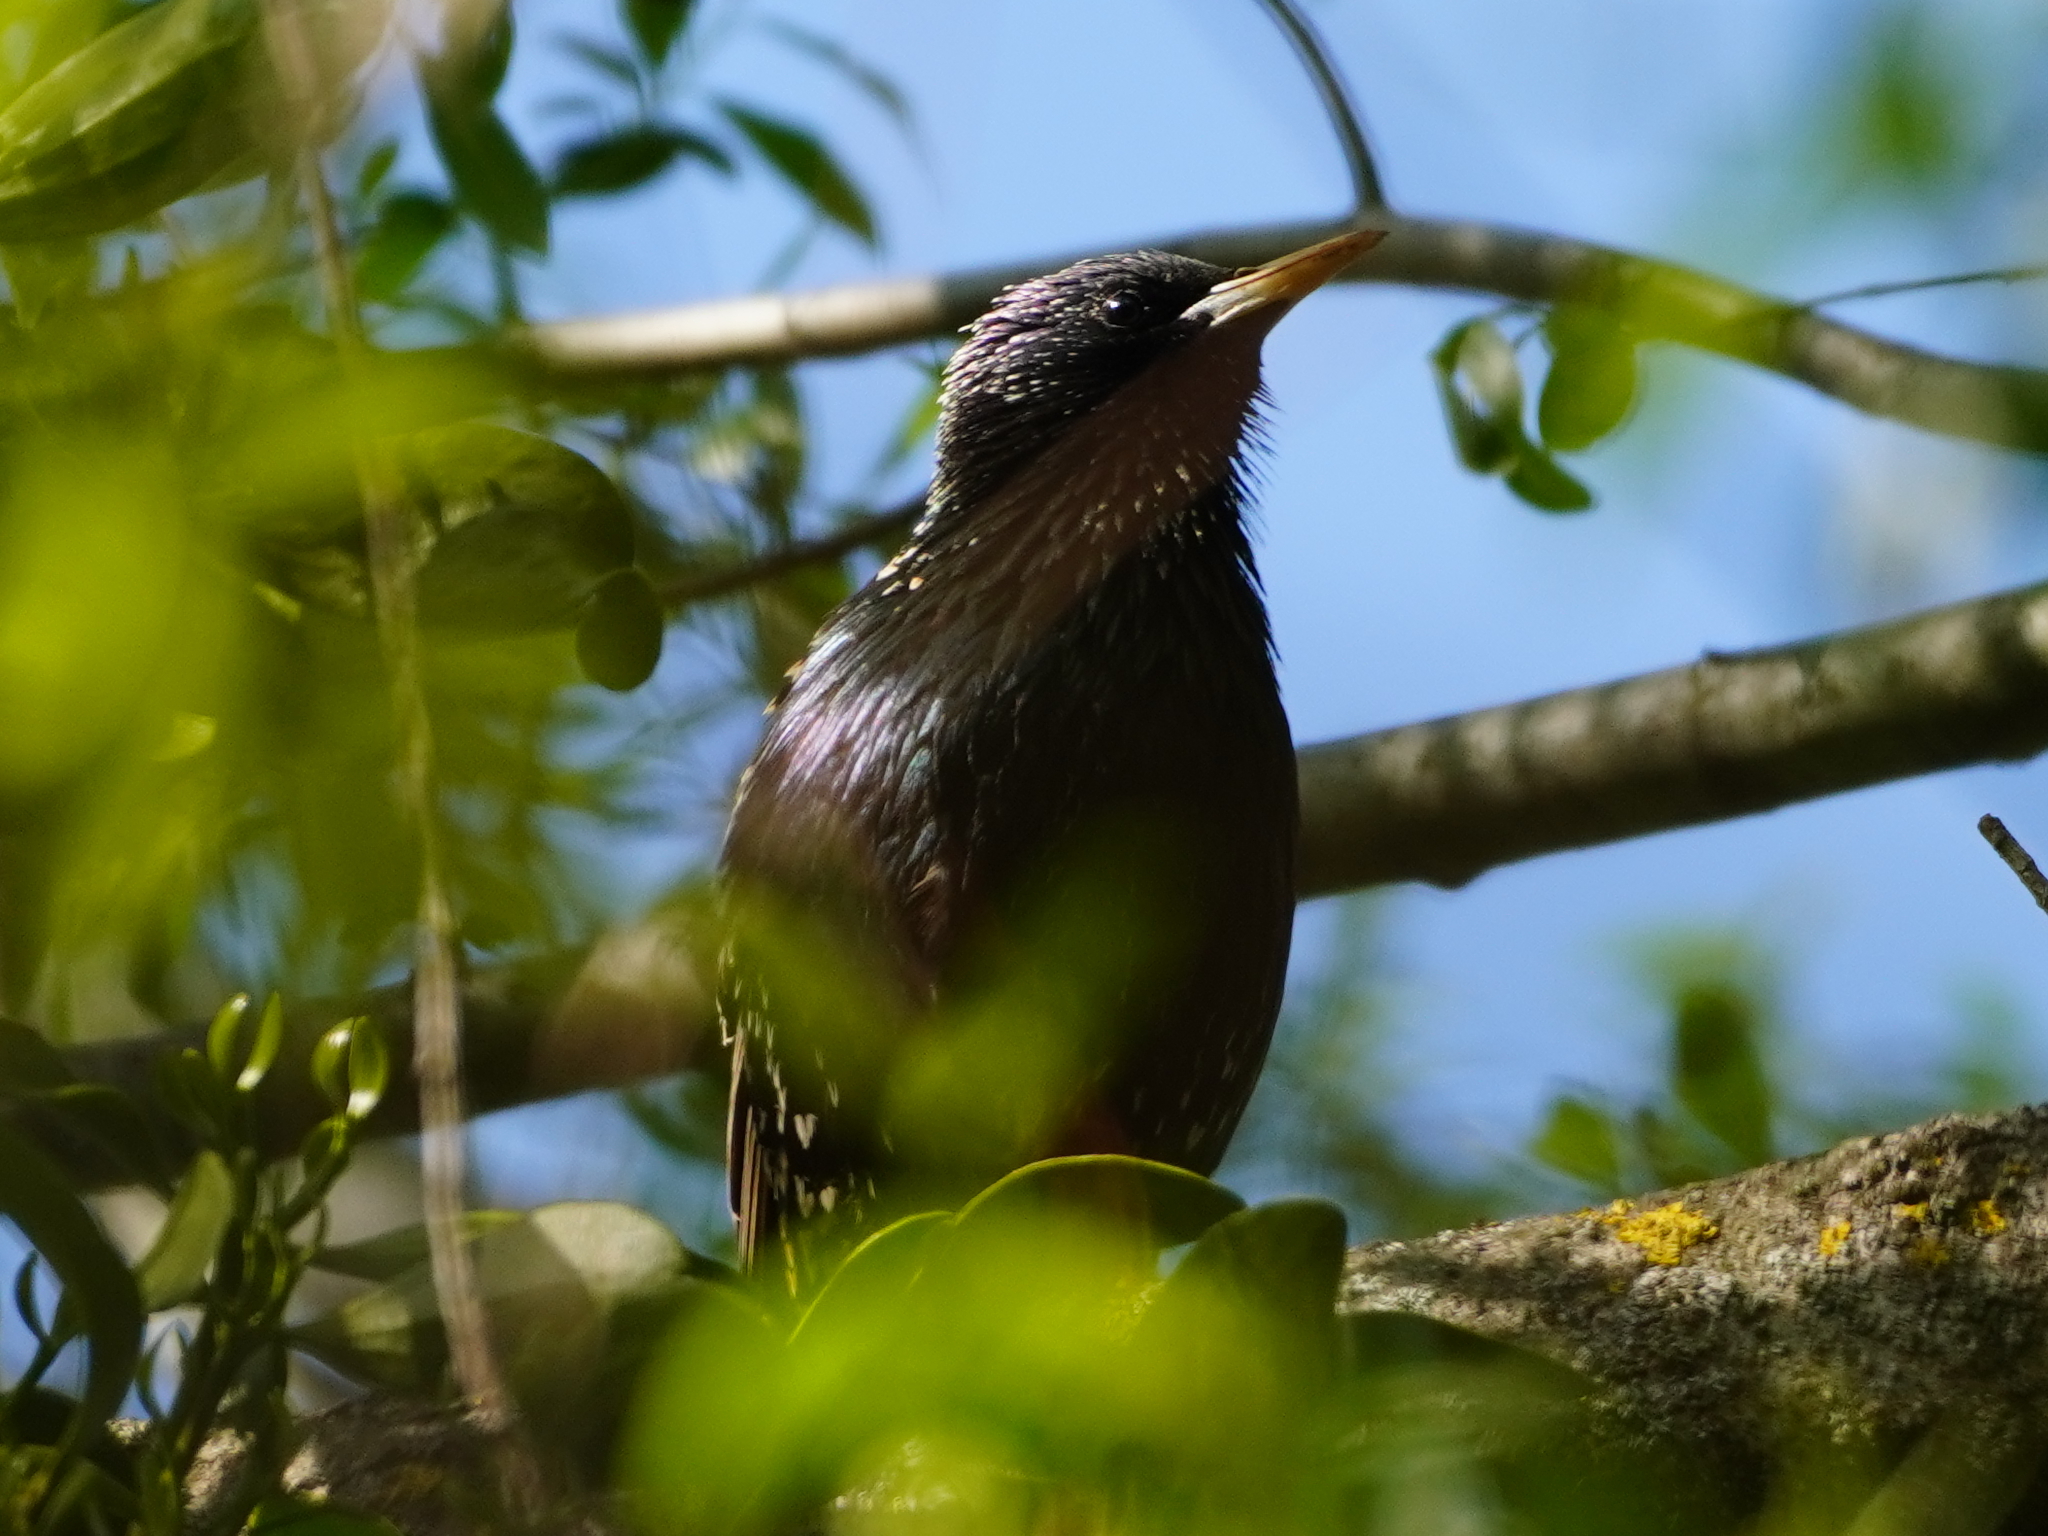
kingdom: Animalia
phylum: Chordata
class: Aves
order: Passeriformes
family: Sturnidae
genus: Sturnus
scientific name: Sturnus vulgaris
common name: Common starling
